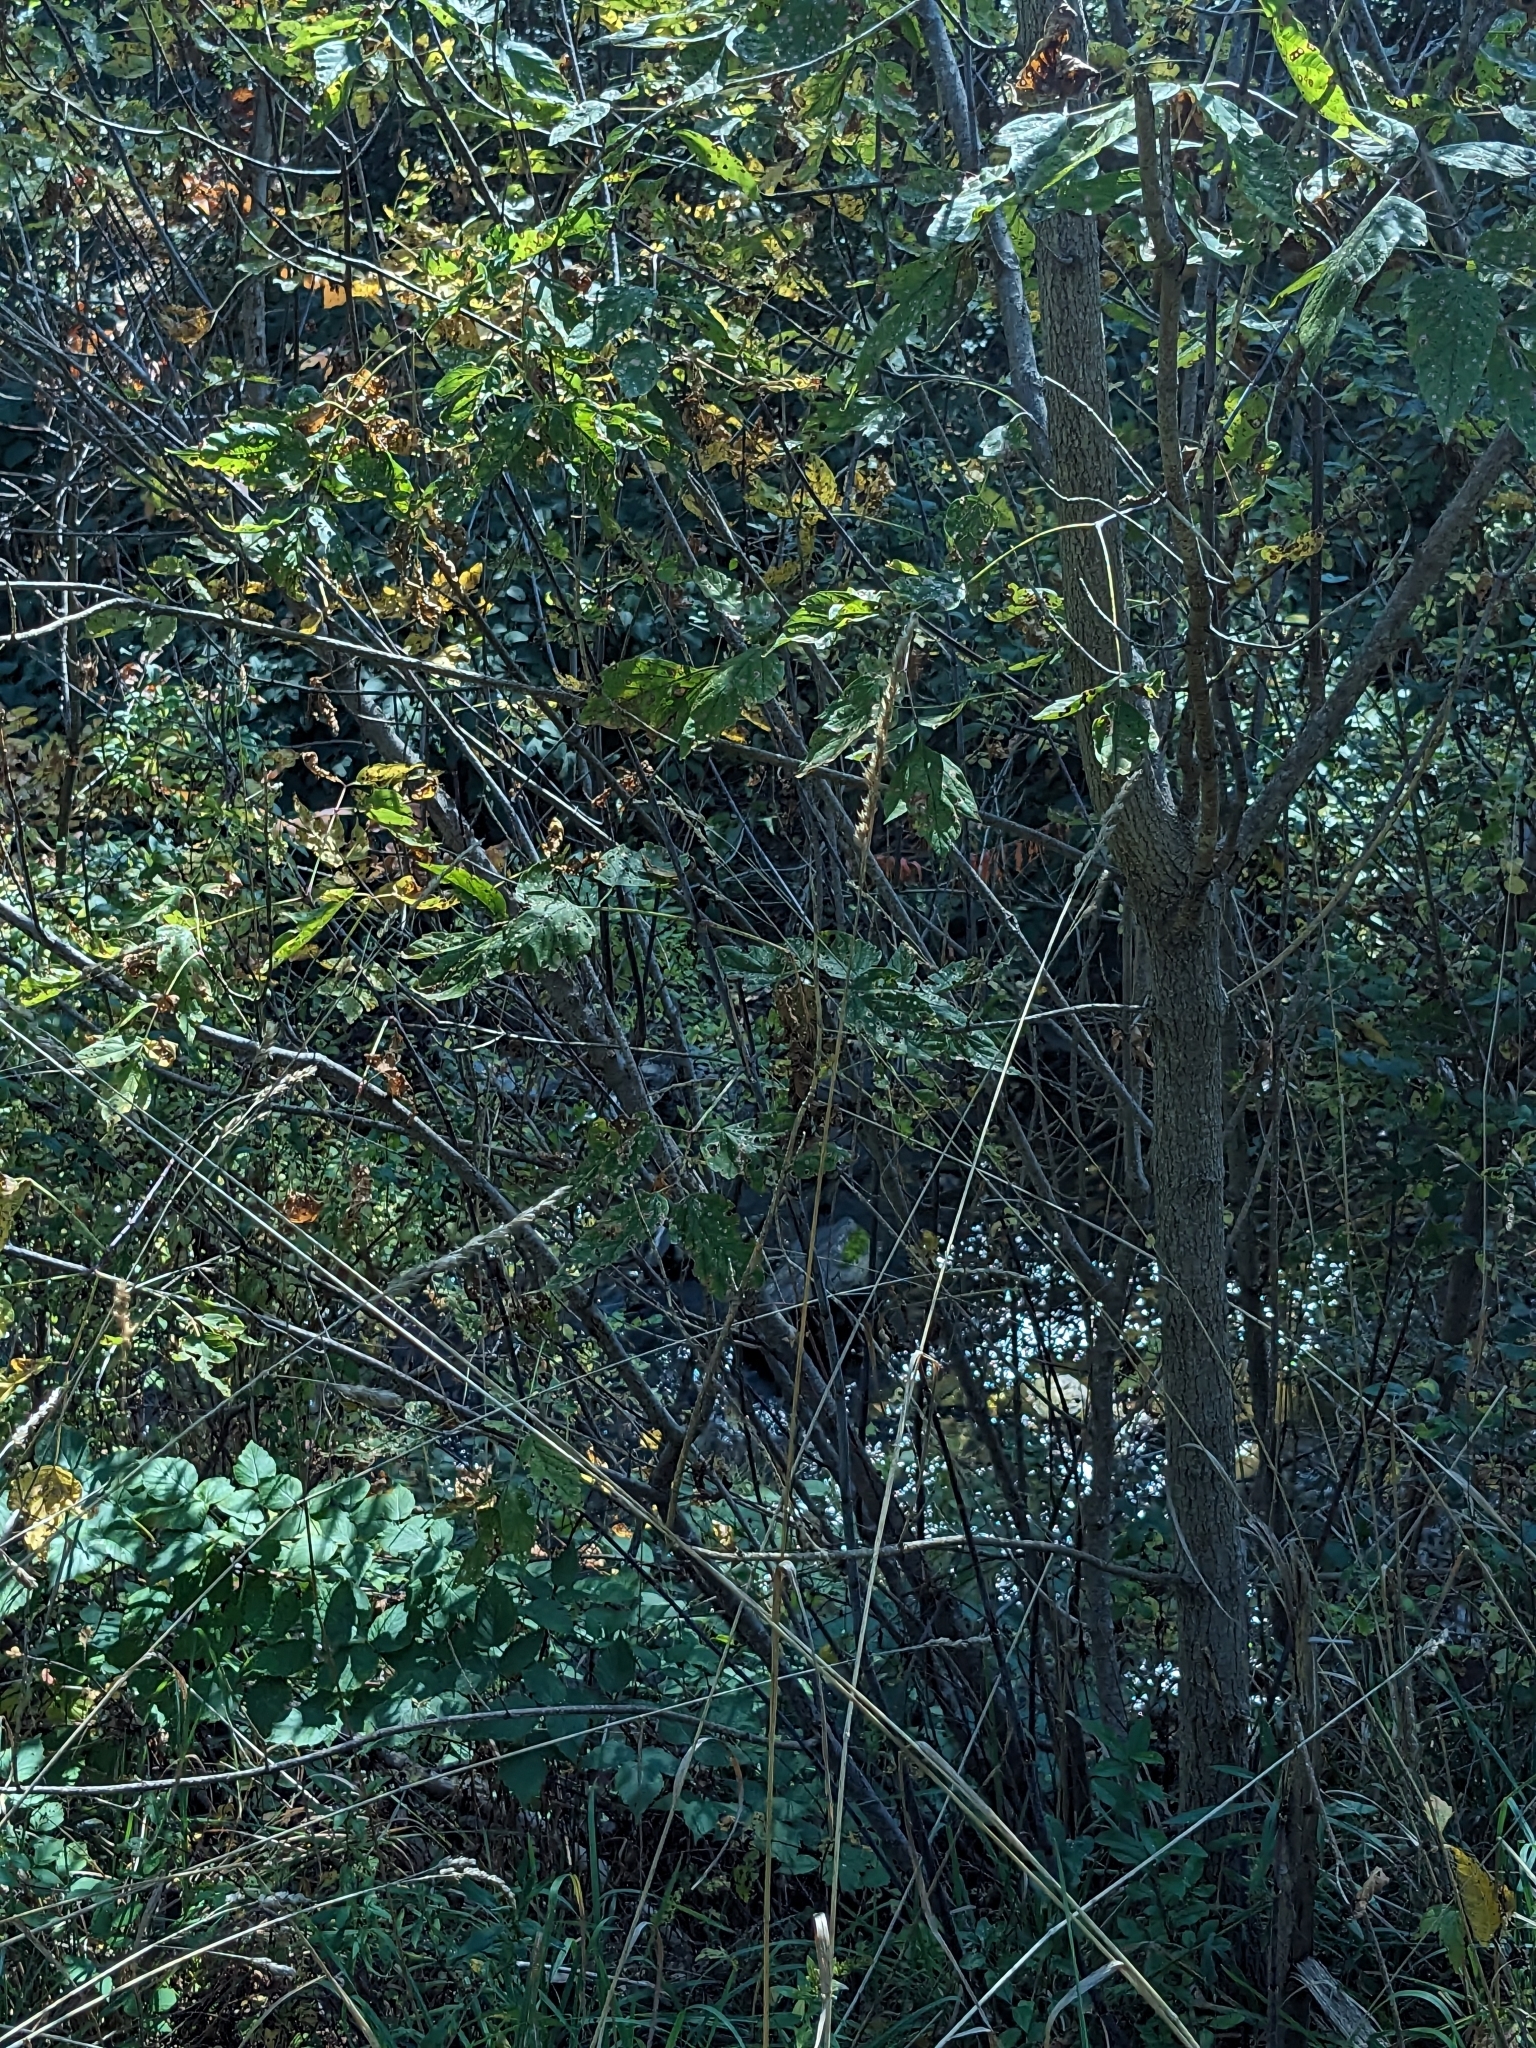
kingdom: Plantae
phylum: Tracheophyta
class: Liliopsida
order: Poales
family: Poaceae
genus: Dactylis
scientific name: Dactylis glomerata
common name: Orchardgrass
